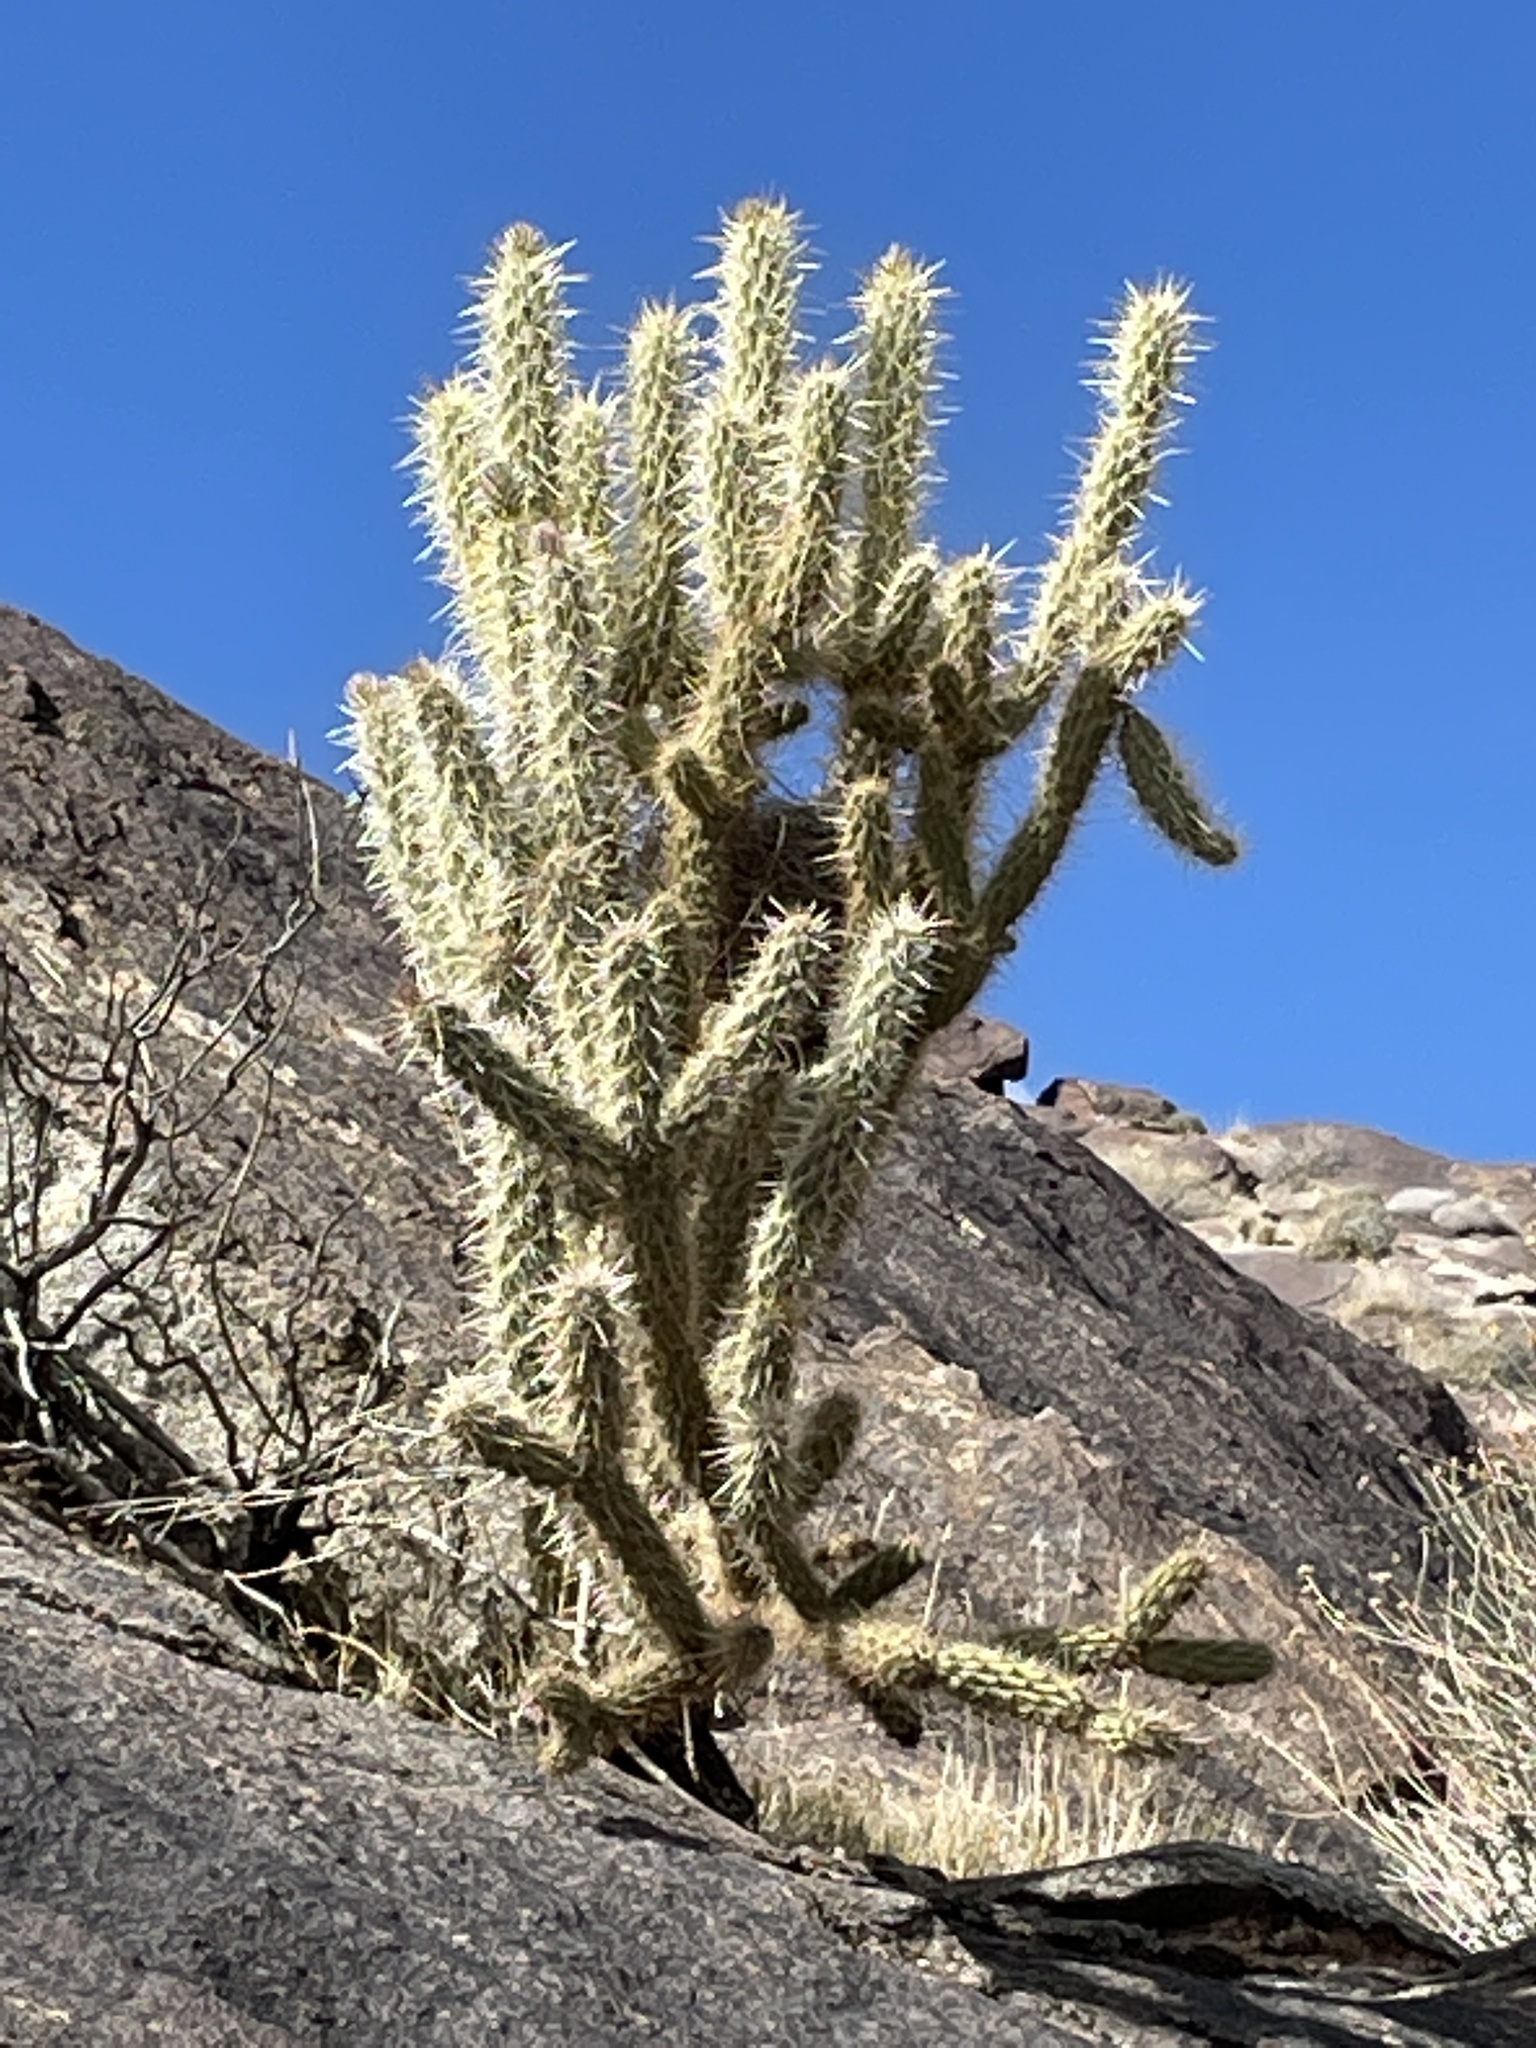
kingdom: Plantae
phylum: Tracheophyta
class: Magnoliopsida
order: Caryophyllales
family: Cactaceae
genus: Cylindropuntia
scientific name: Cylindropuntia ganderi
